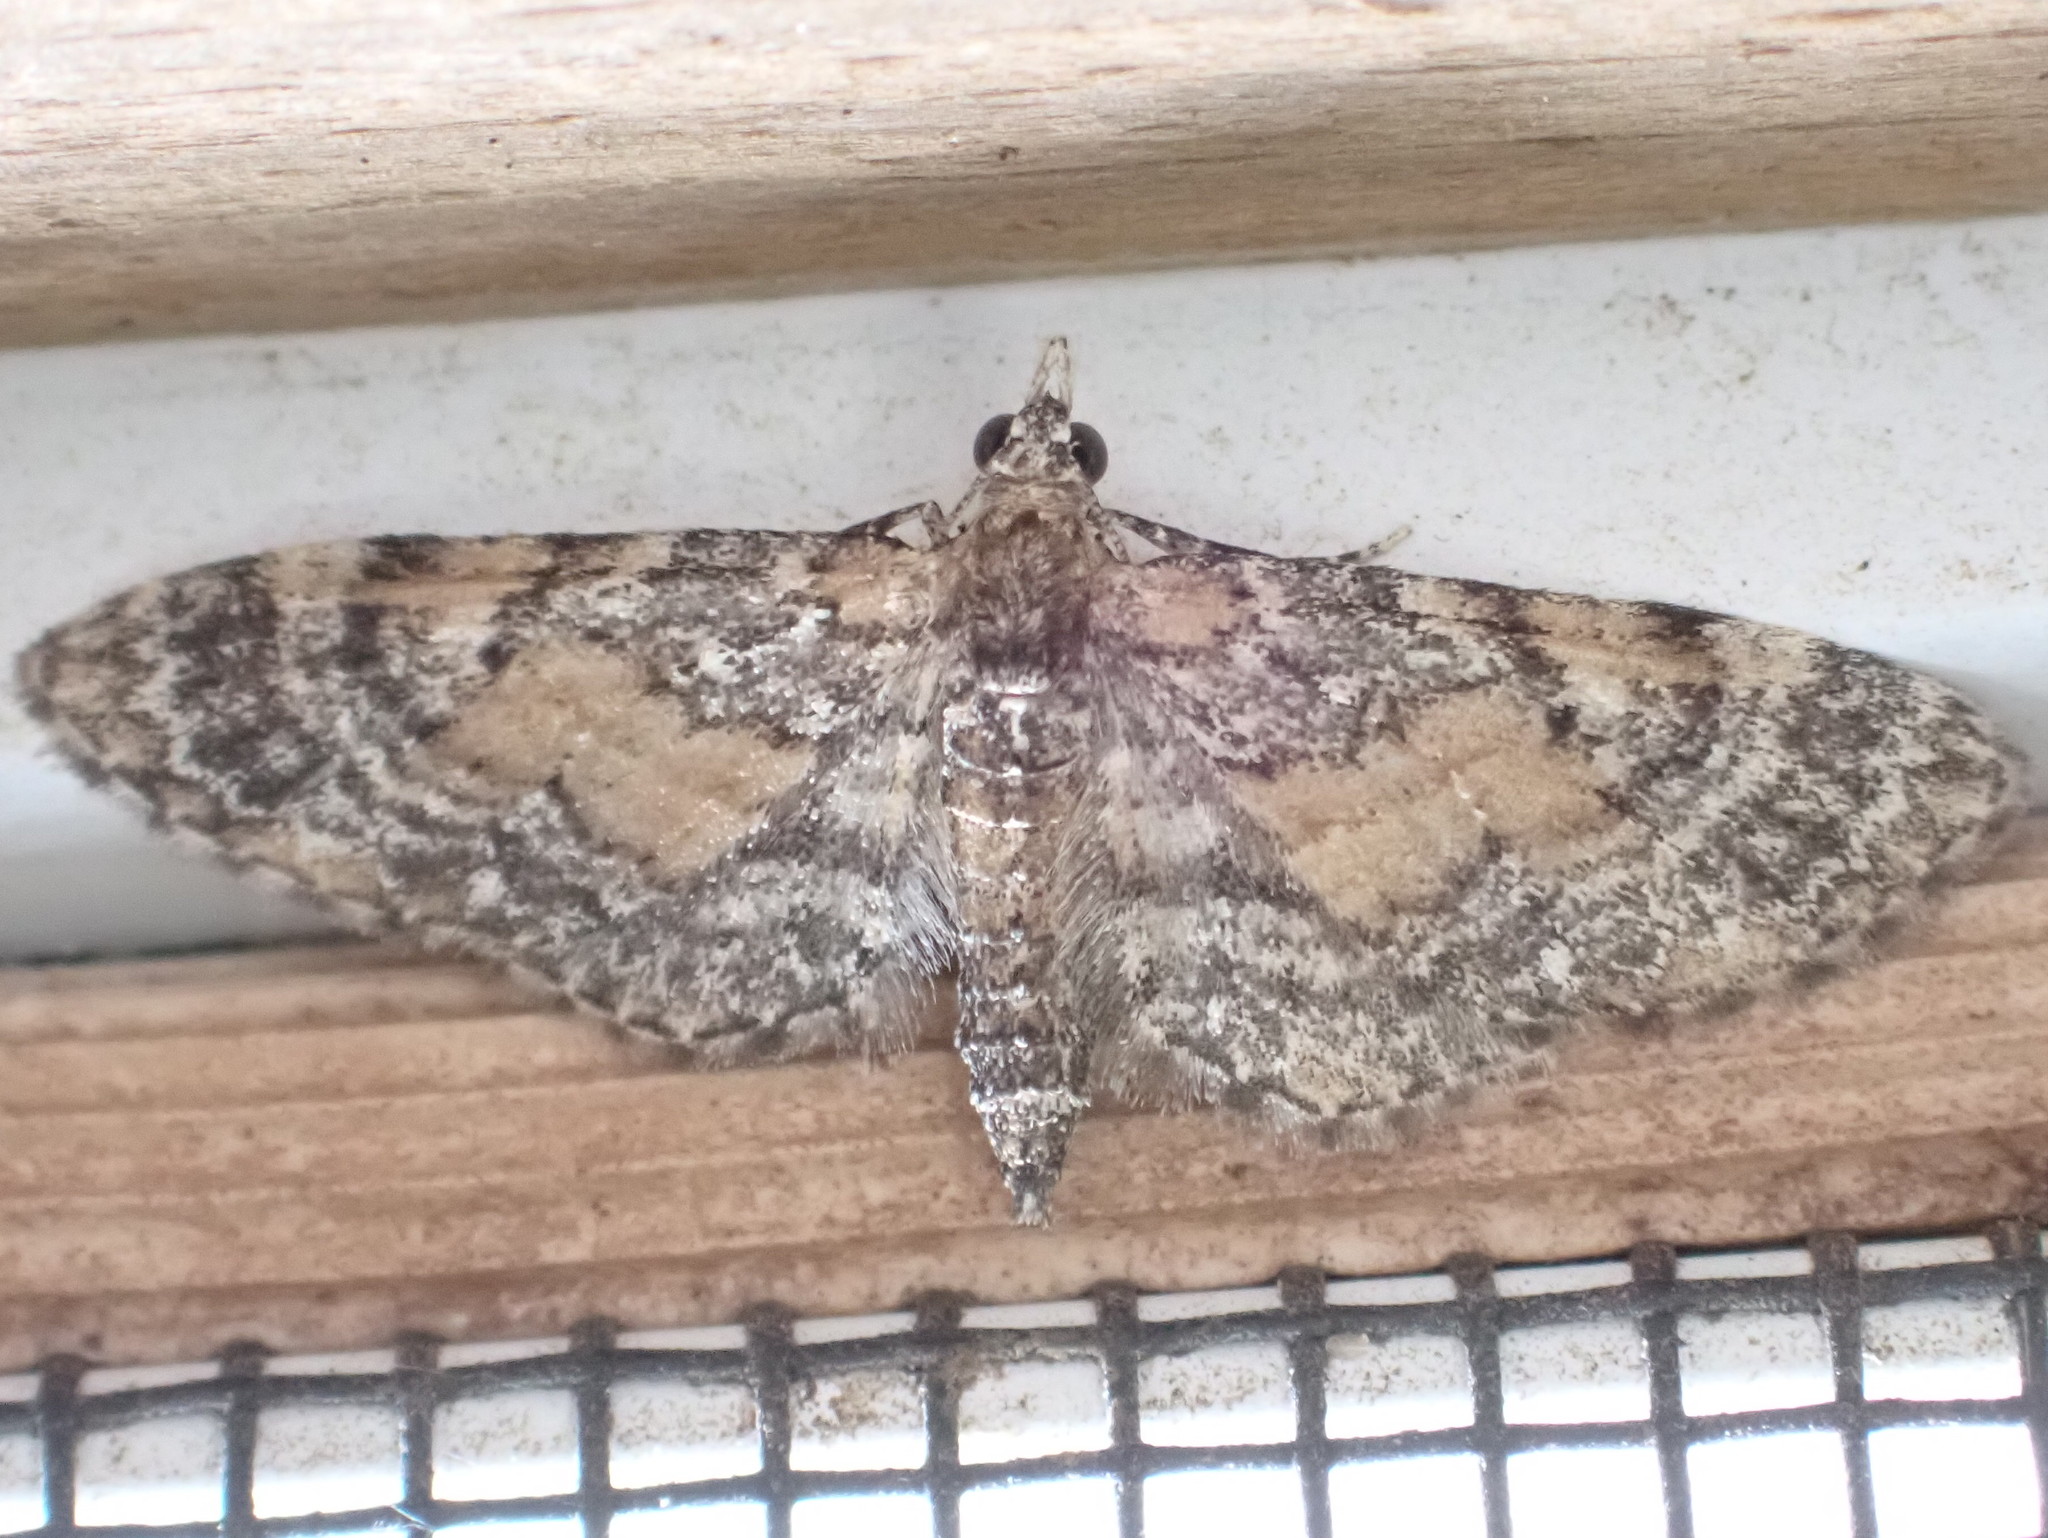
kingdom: Animalia
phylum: Arthropoda
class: Insecta
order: Lepidoptera
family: Geometridae
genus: Eupithecia
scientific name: Eupithecia palpata
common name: Small pine looper
